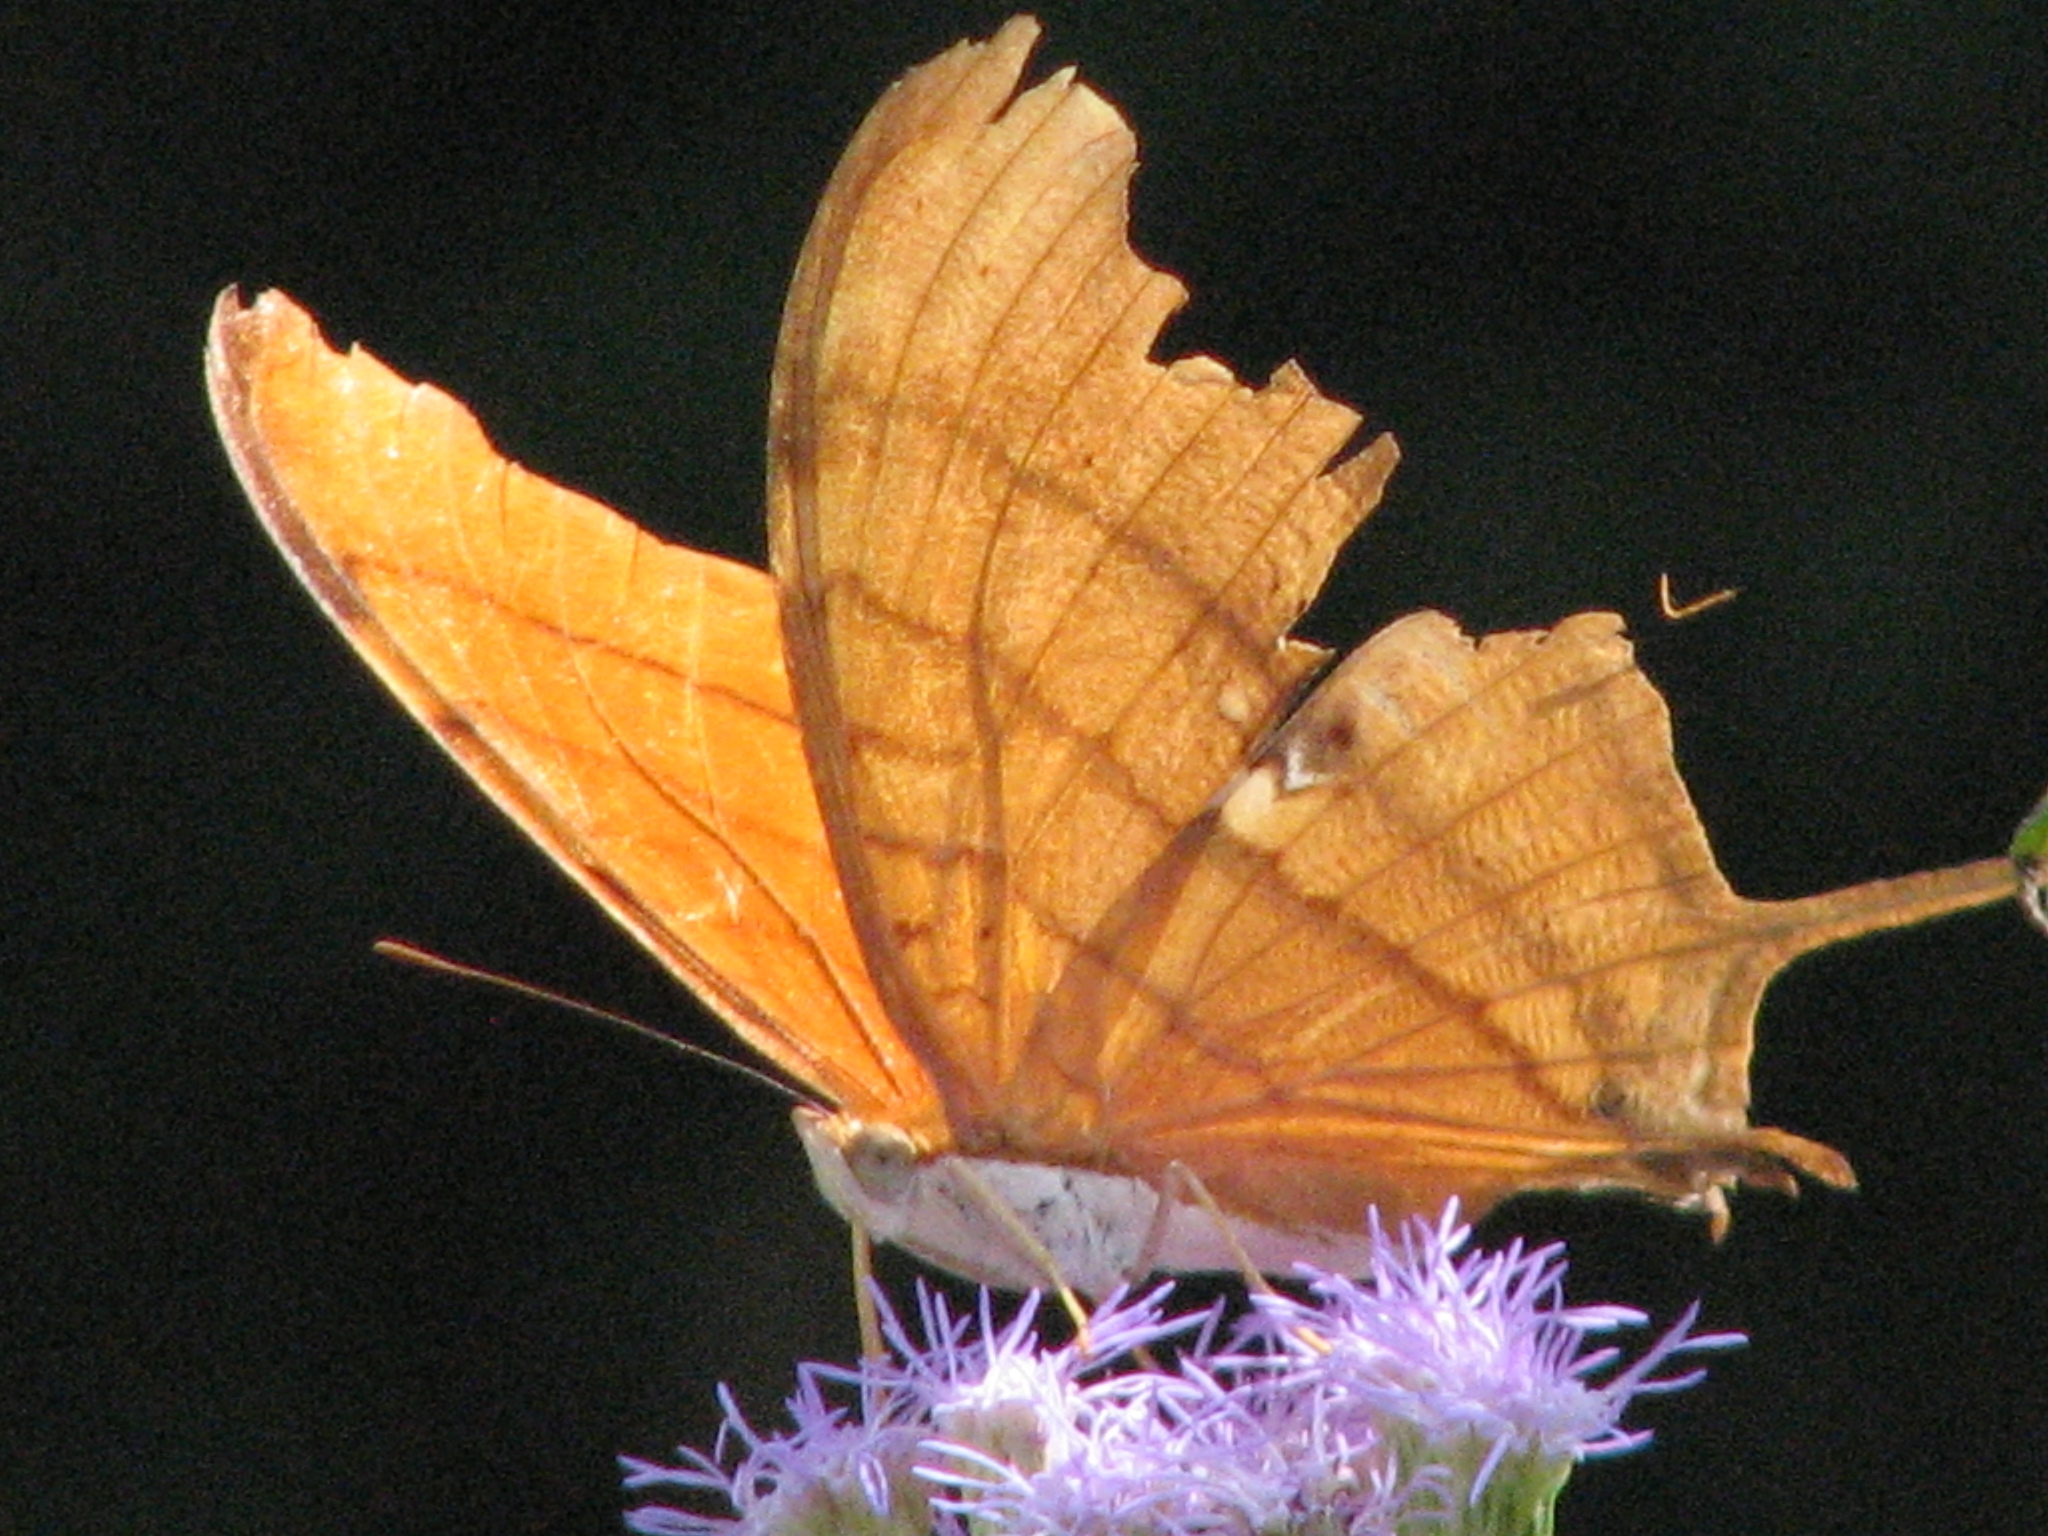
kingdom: Animalia
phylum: Arthropoda
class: Insecta
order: Lepidoptera
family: Nymphalidae
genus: Marpesia
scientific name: Marpesia petreus
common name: Red dagger wing
